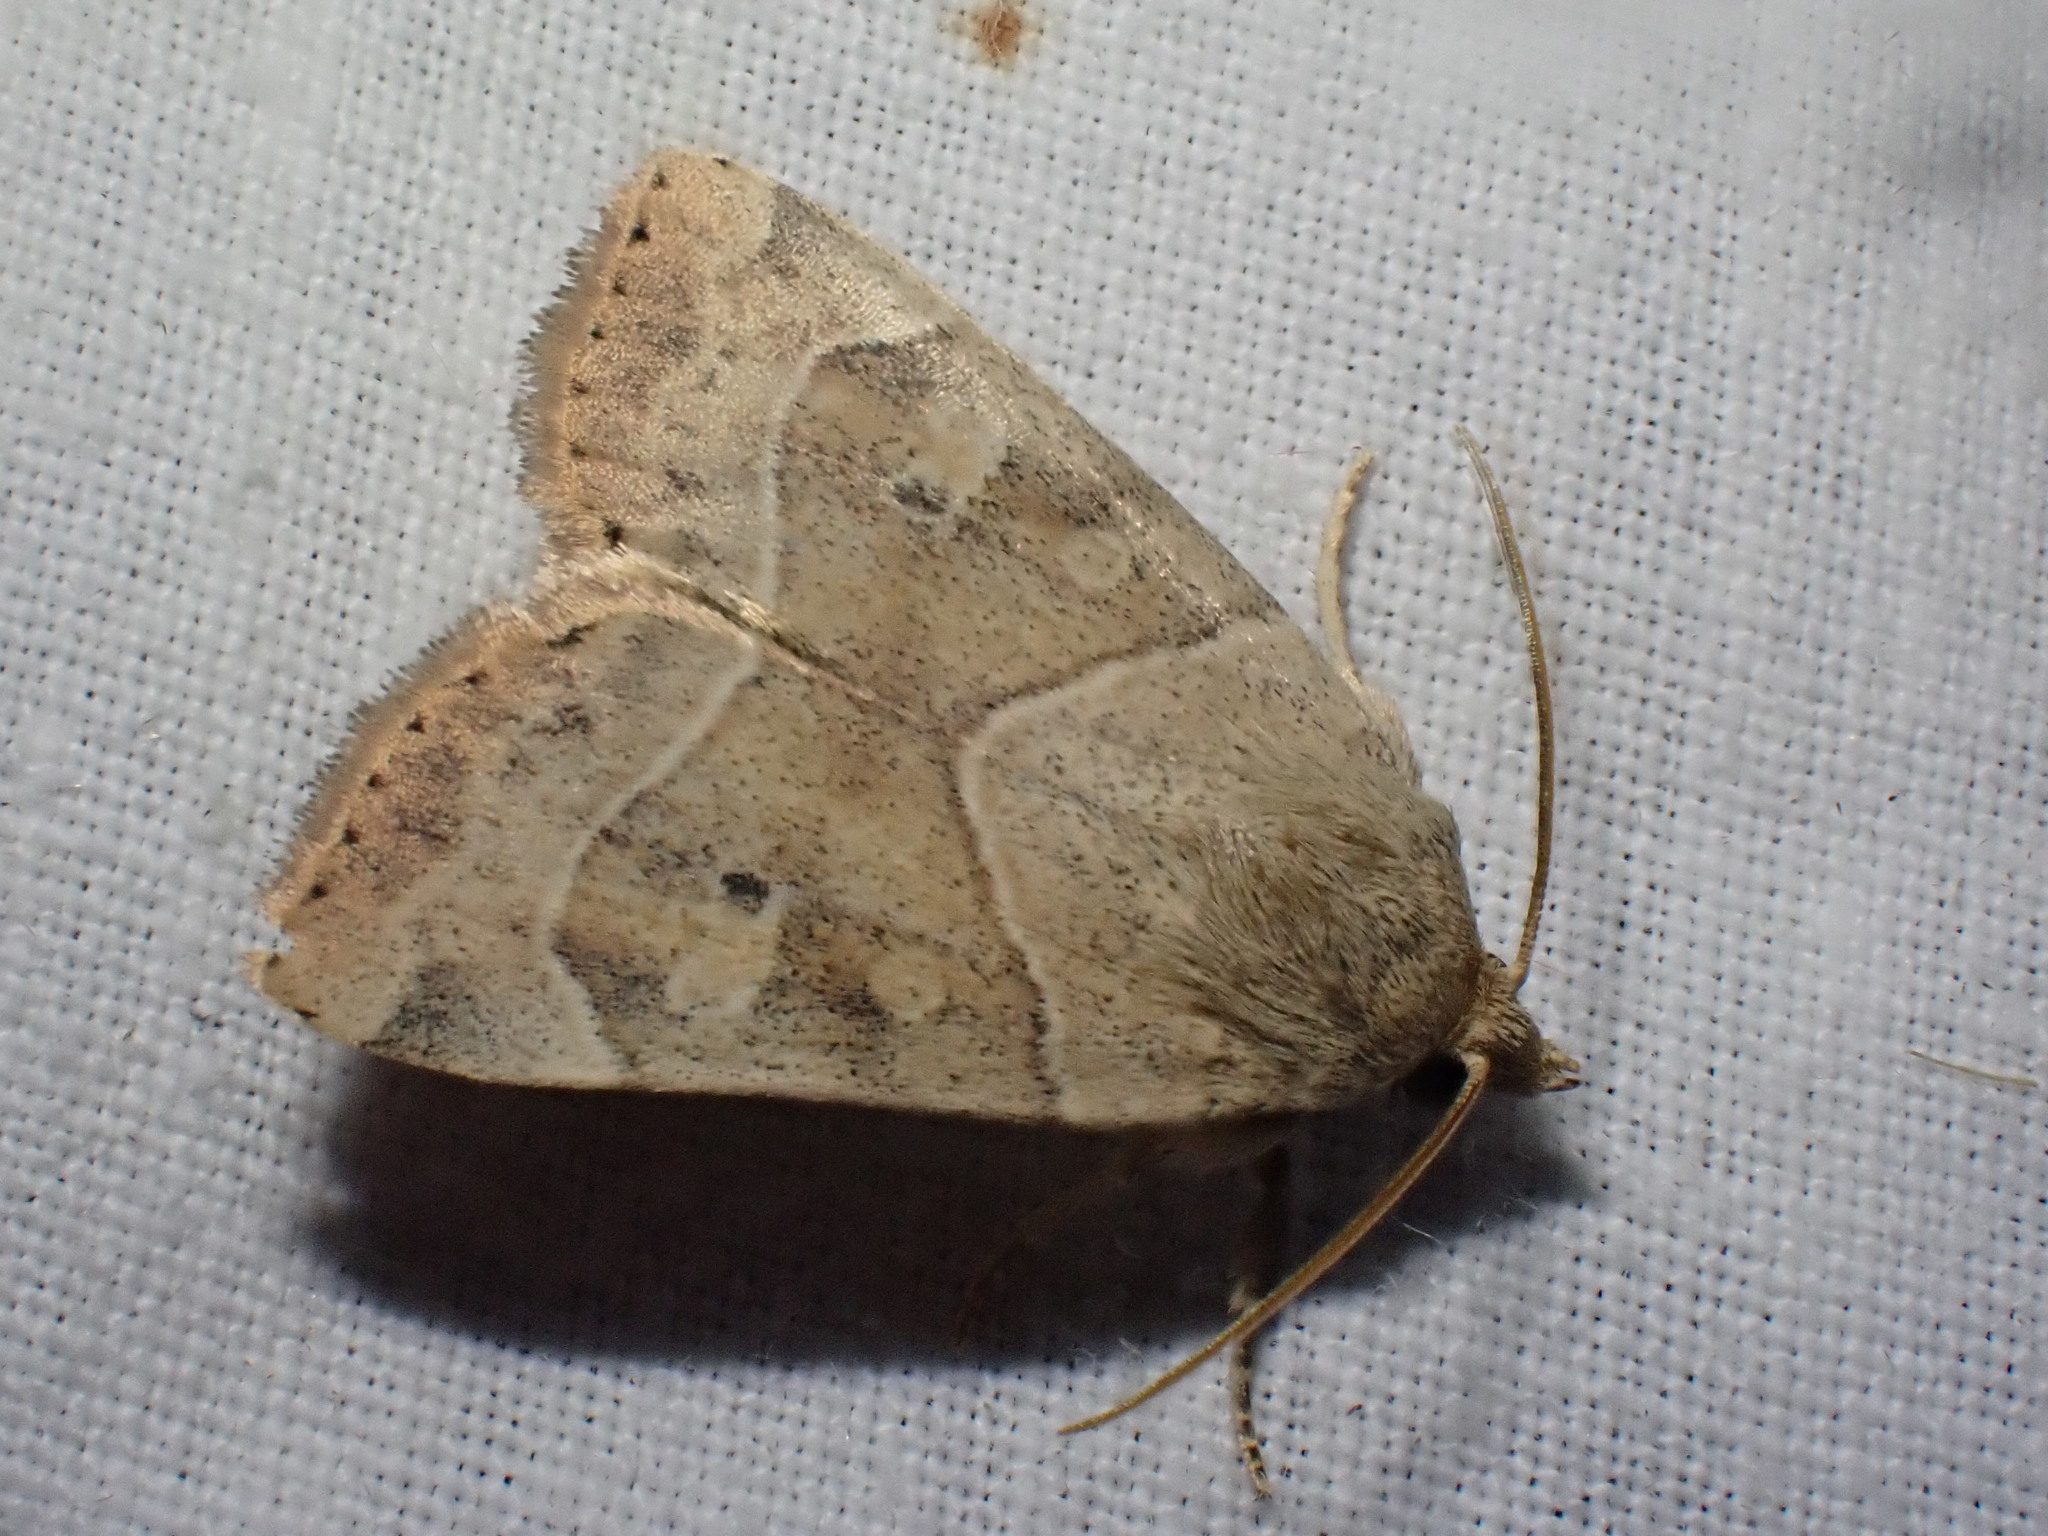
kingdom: Animalia
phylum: Arthropoda
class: Insecta
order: Lepidoptera
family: Noctuidae
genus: Cosmia
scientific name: Cosmia trapezina
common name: Dun-bar
